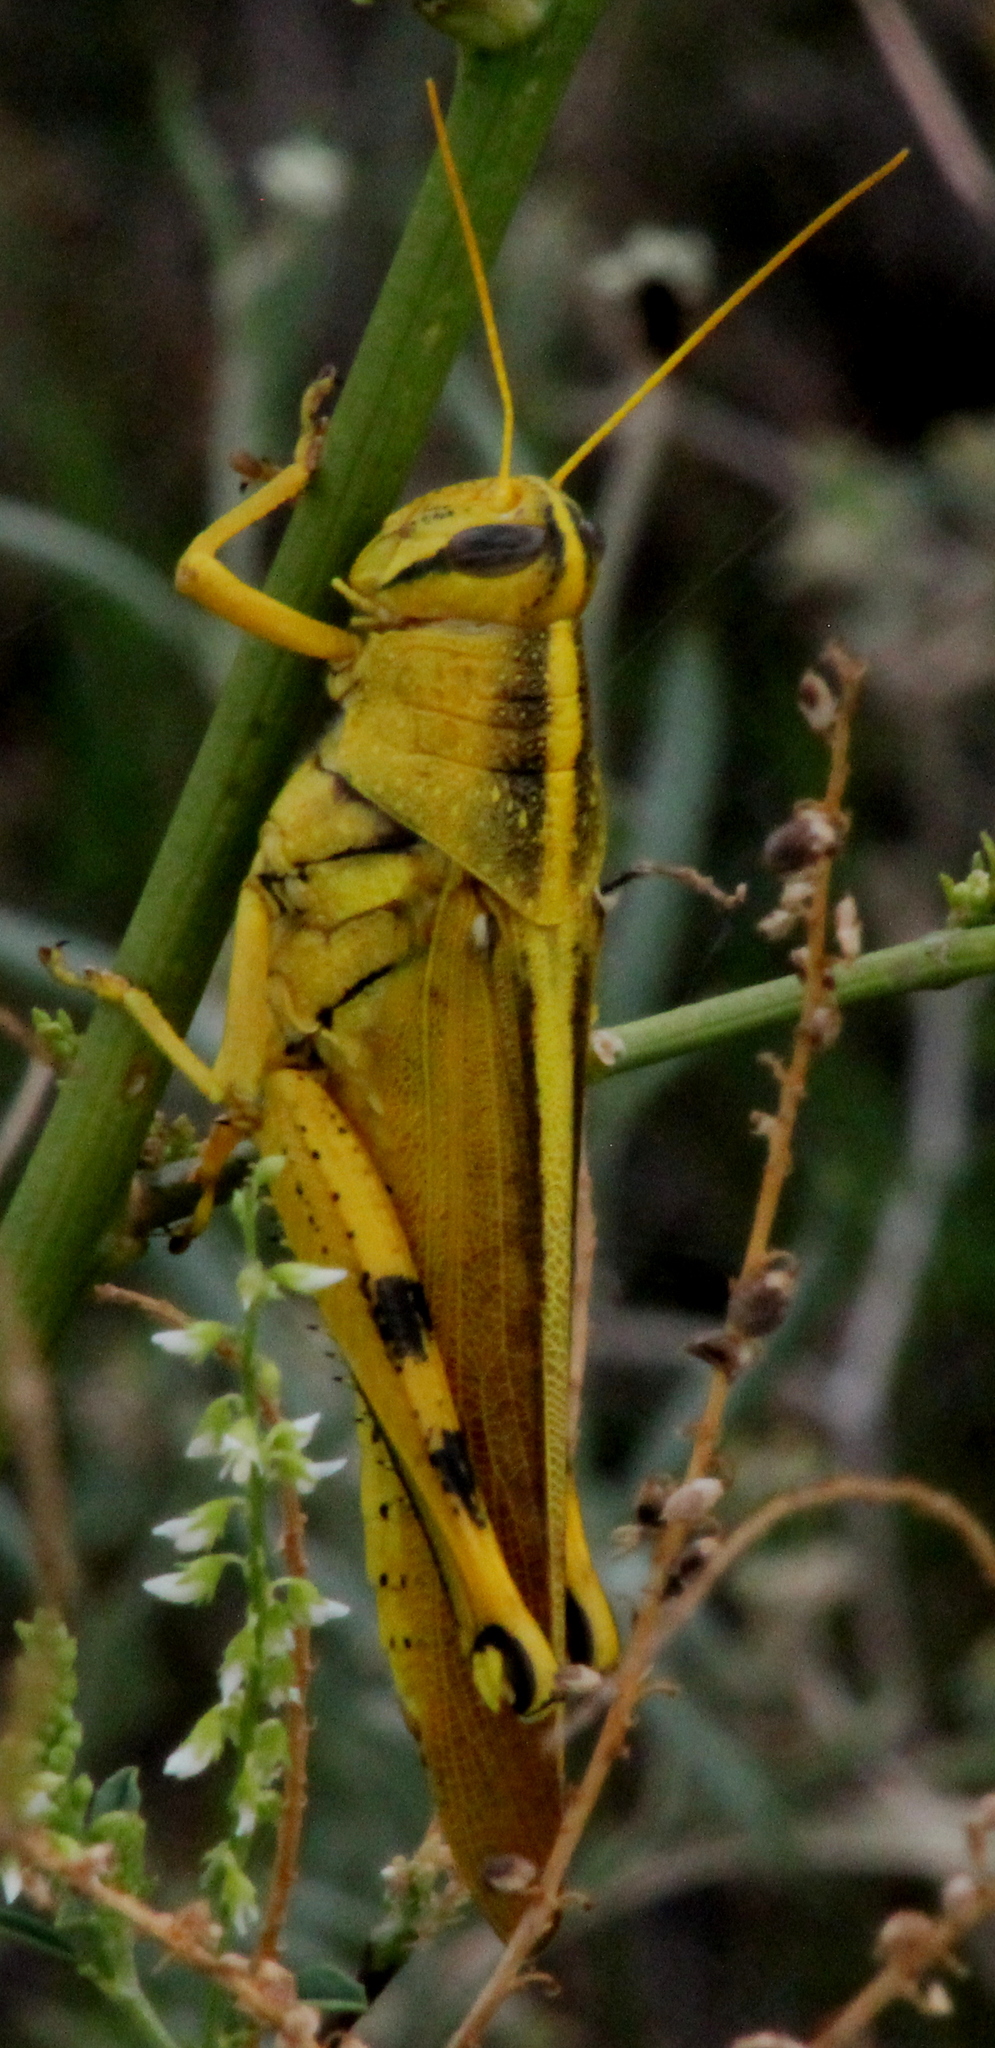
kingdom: Animalia
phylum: Arthropoda
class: Insecta
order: Orthoptera
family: Acrididae
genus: Schistocerca
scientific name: Schistocerca lineata
